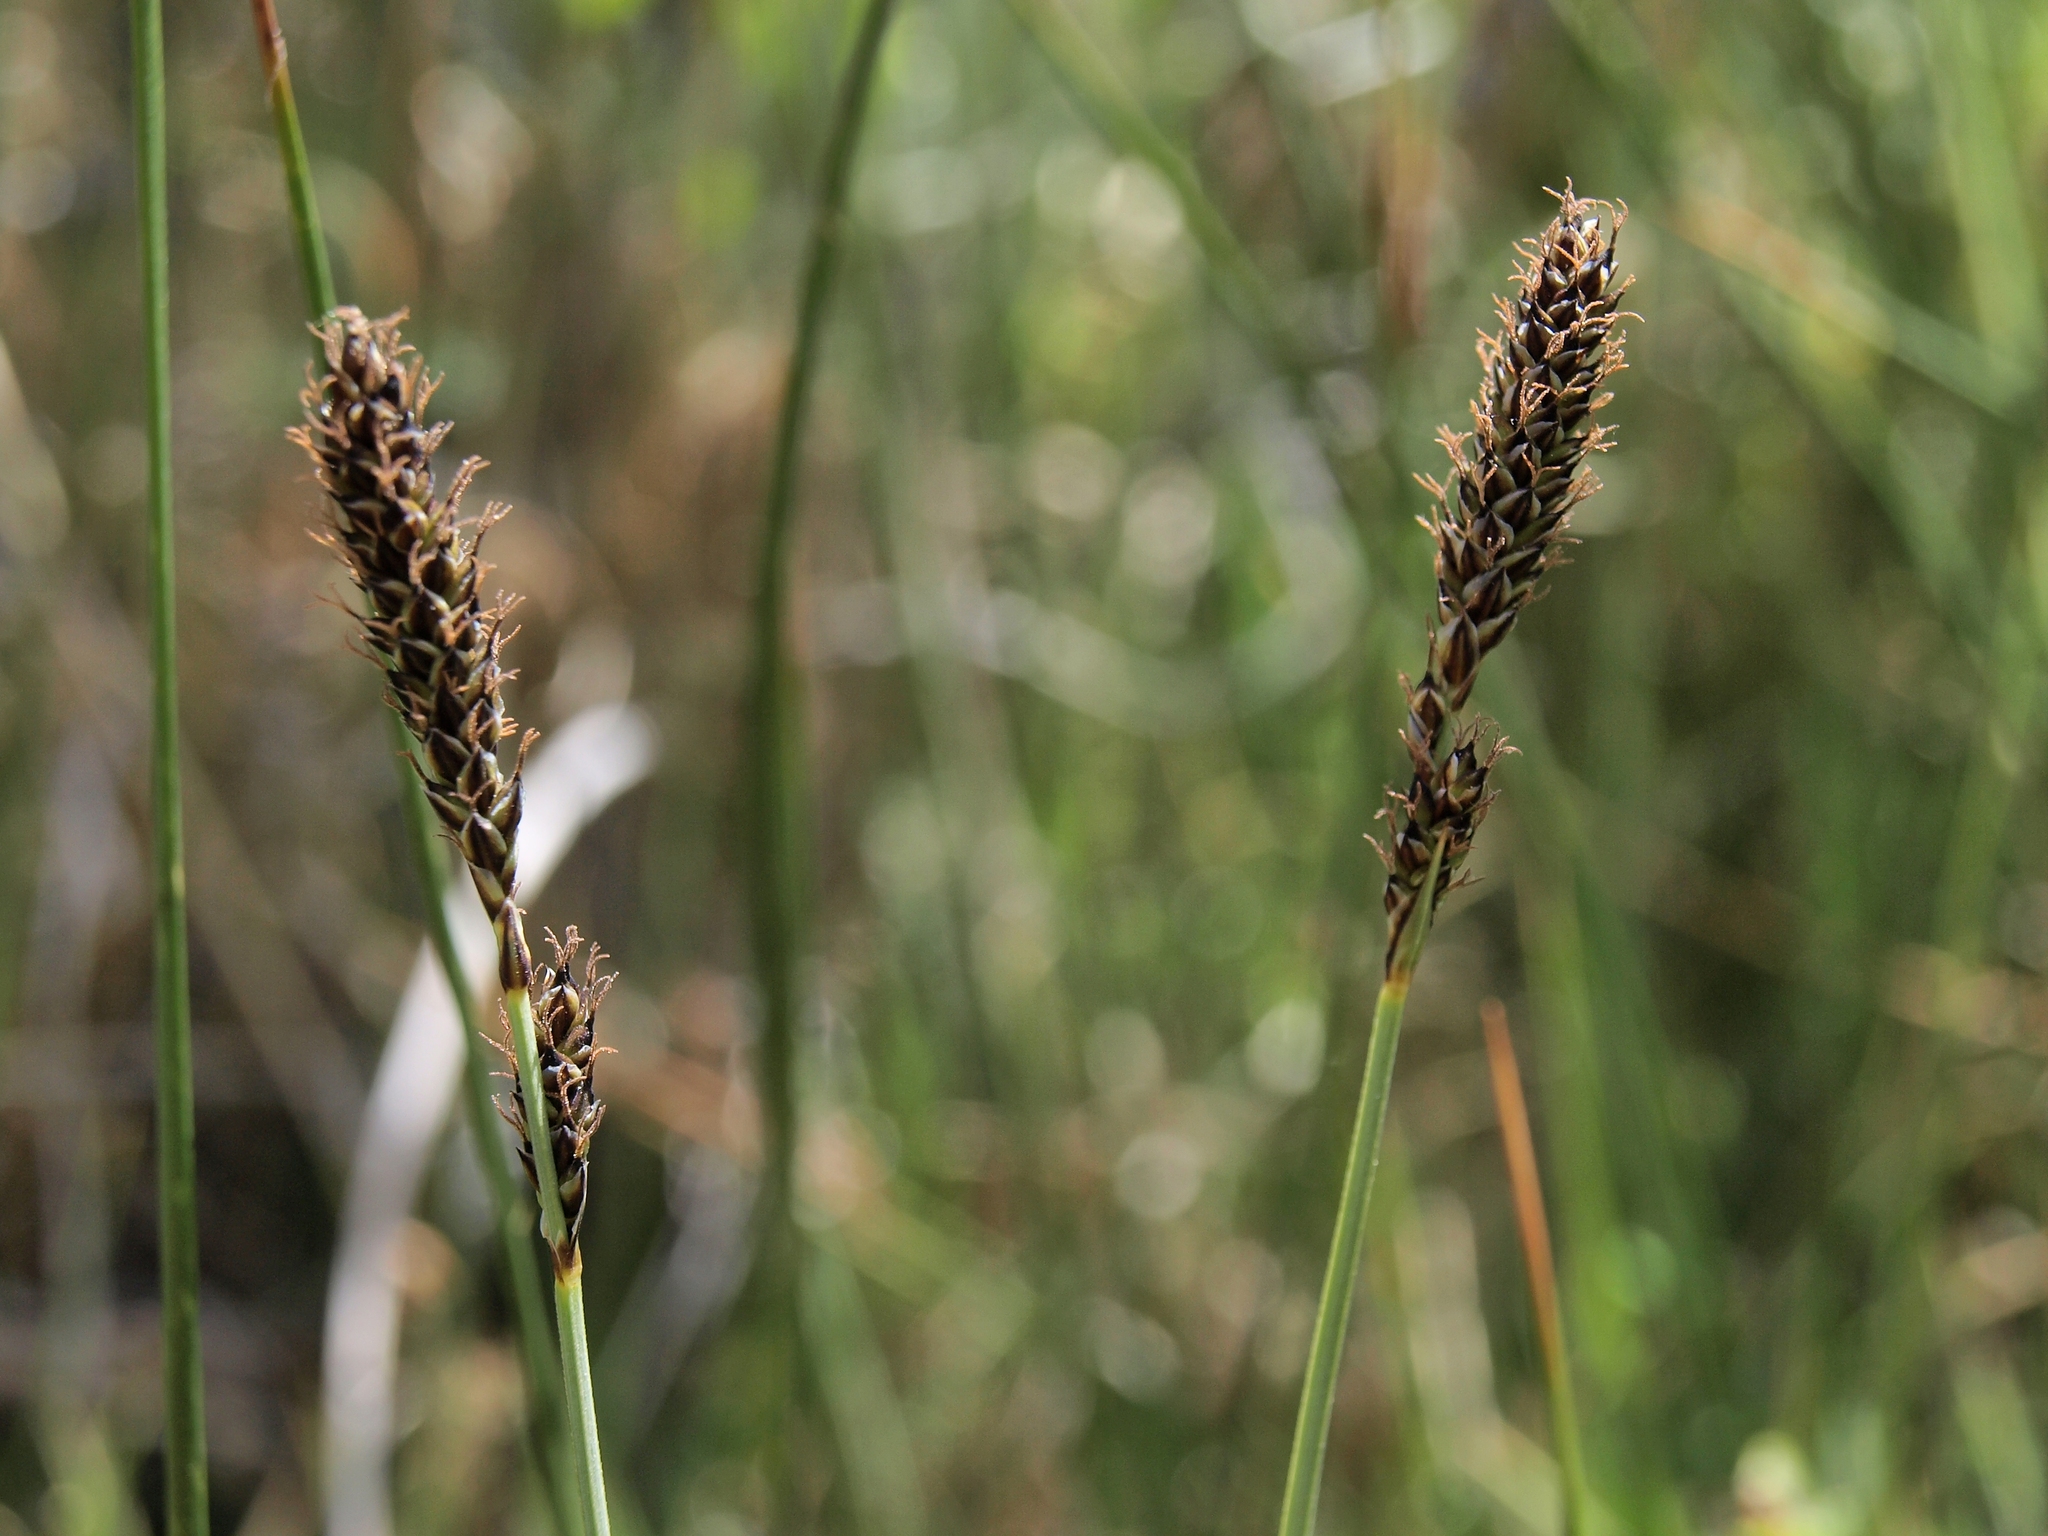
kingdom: Plantae
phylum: Tracheophyta
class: Liliopsida
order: Poales
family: Cyperaceae
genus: Carex
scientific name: Carex idahoa
